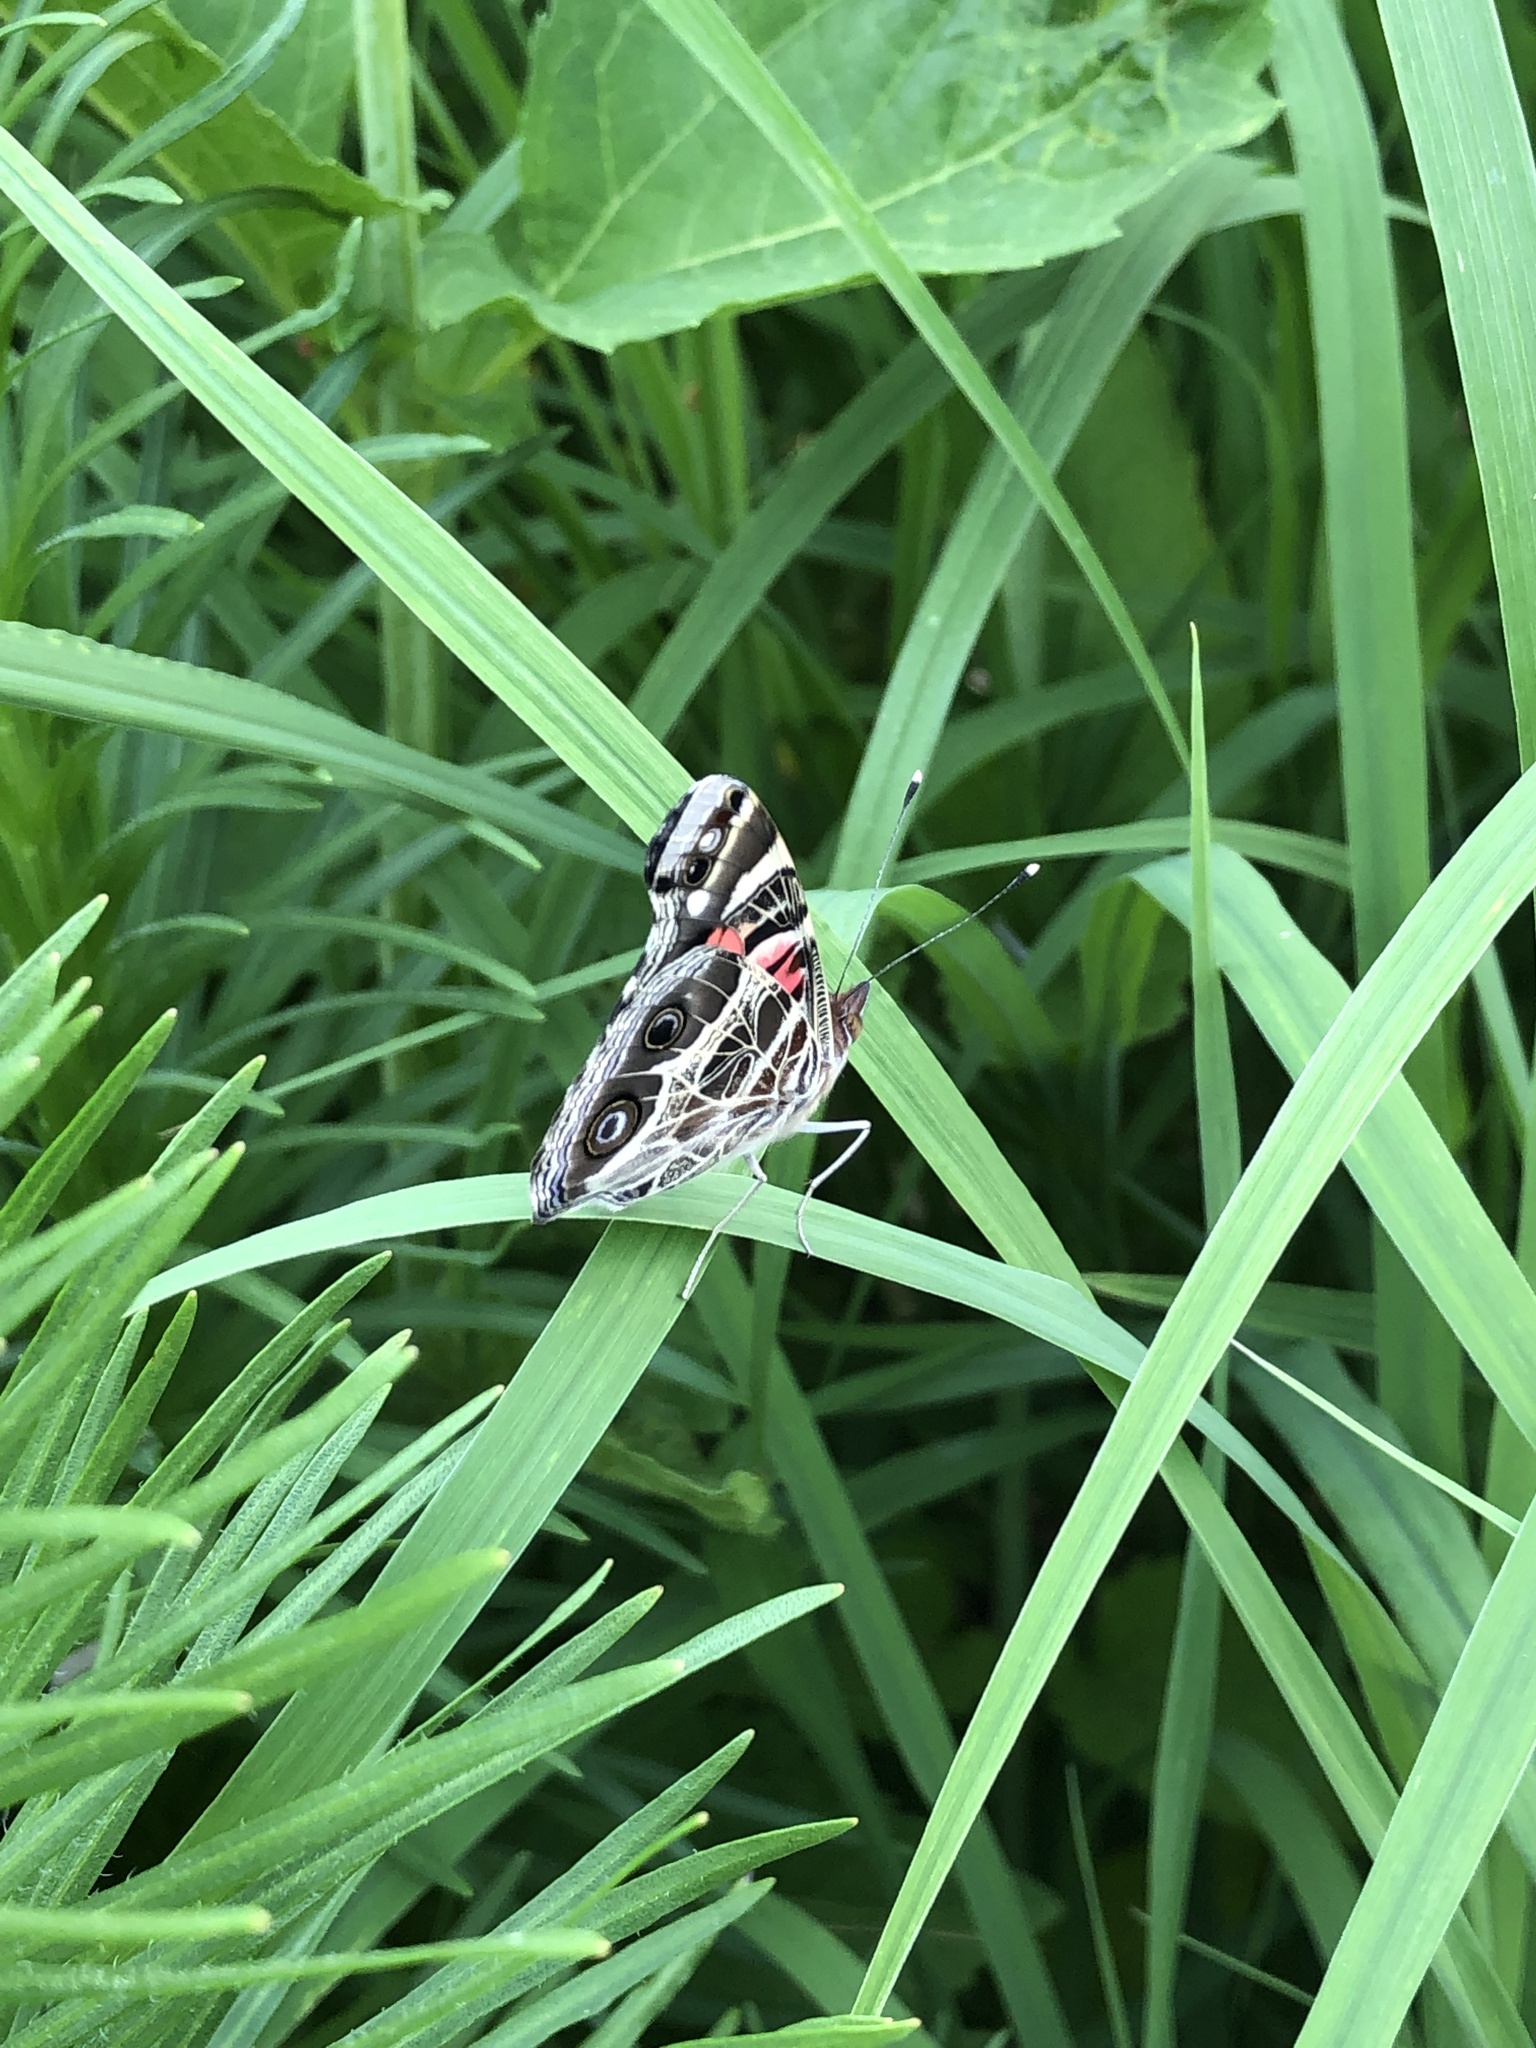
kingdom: Animalia
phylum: Arthropoda
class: Insecta
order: Lepidoptera
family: Nymphalidae
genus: Vanessa
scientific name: Vanessa virginiensis
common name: American lady
